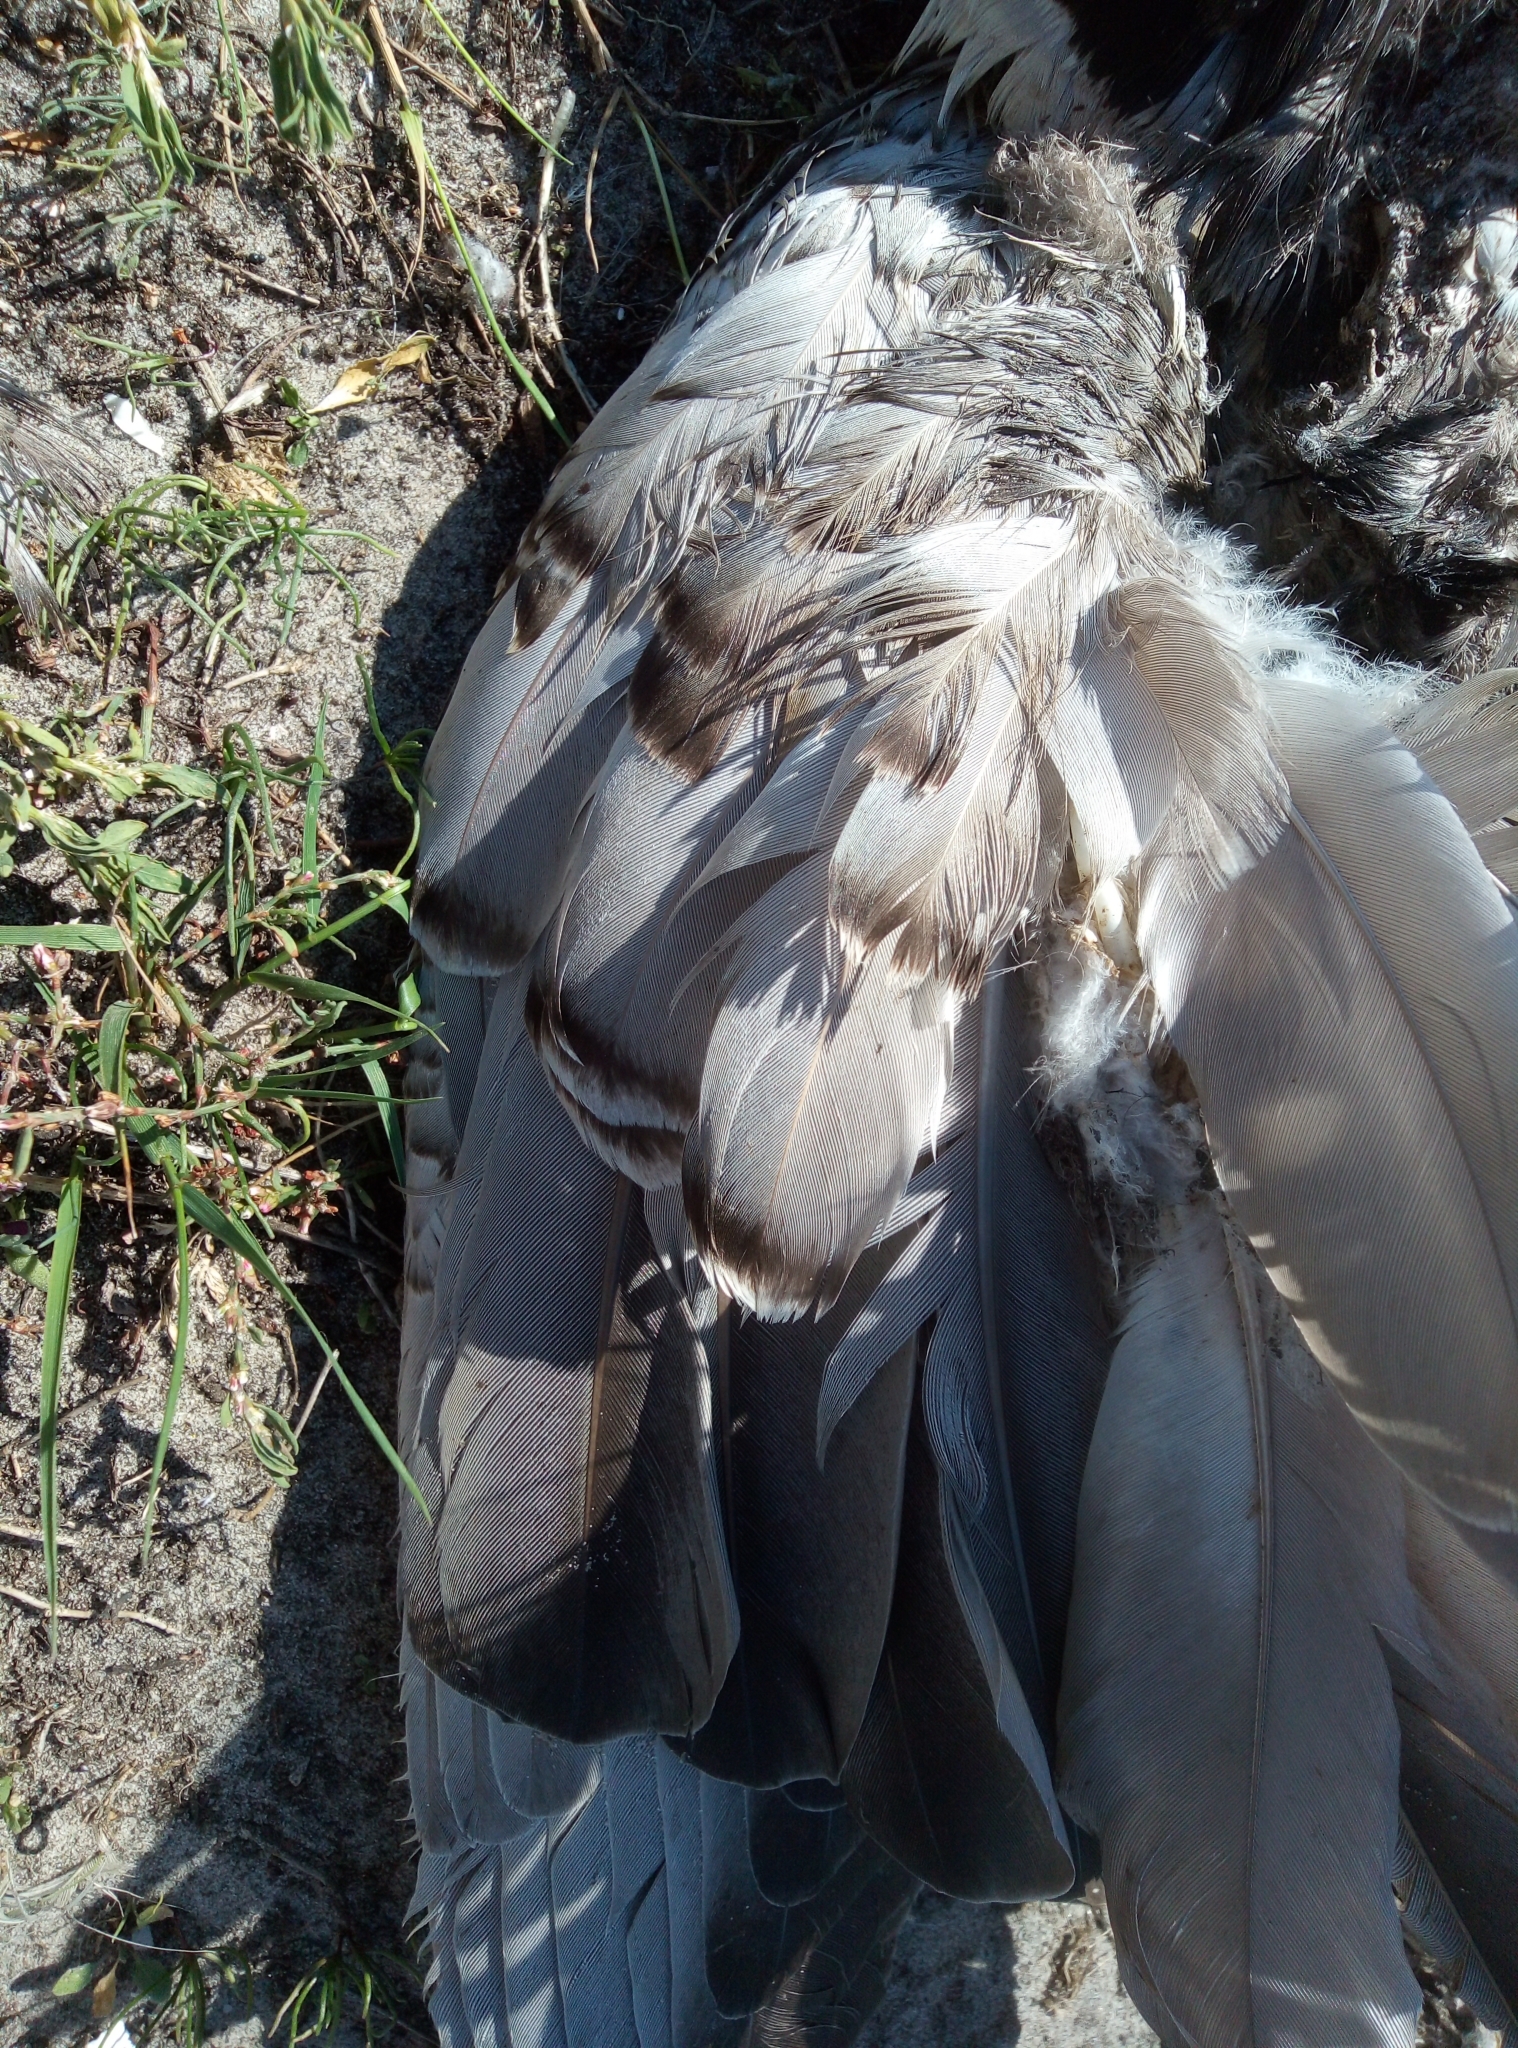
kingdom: Animalia
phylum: Chordata
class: Aves
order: Anseriformes
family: Anatidae
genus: Branta
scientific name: Branta leucopsis
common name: Barnacle goose
